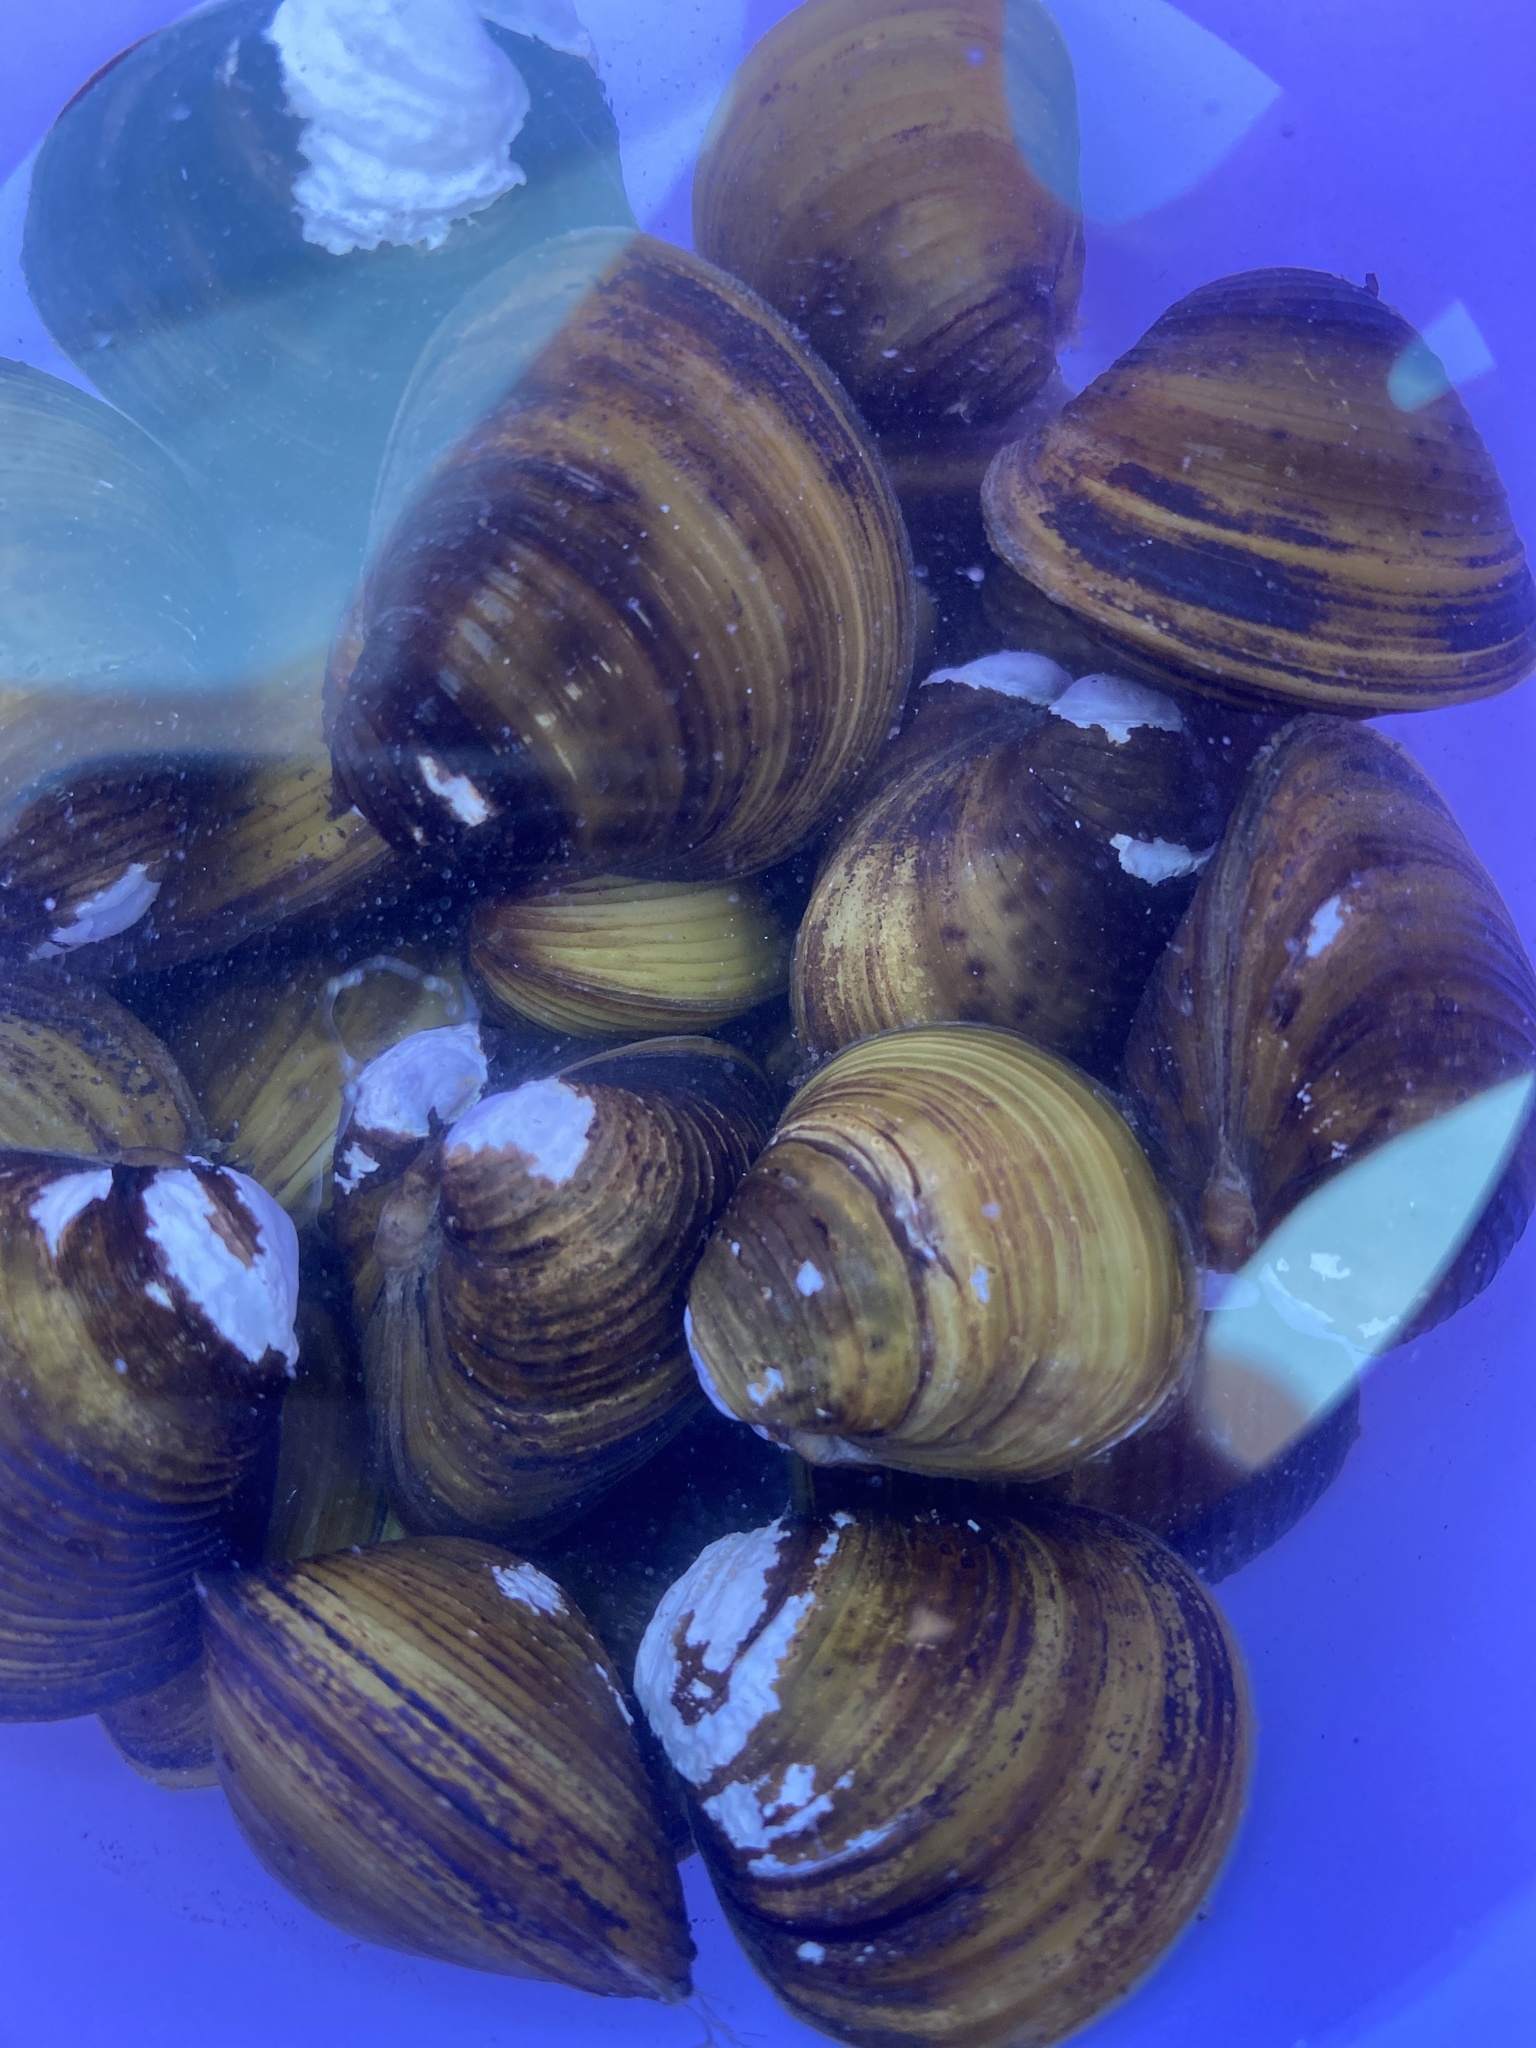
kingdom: Animalia
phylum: Mollusca
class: Bivalvia
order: Venerida
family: Cyrenidae
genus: Corbicula
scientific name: Corbicula fluminea
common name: Asian clam
